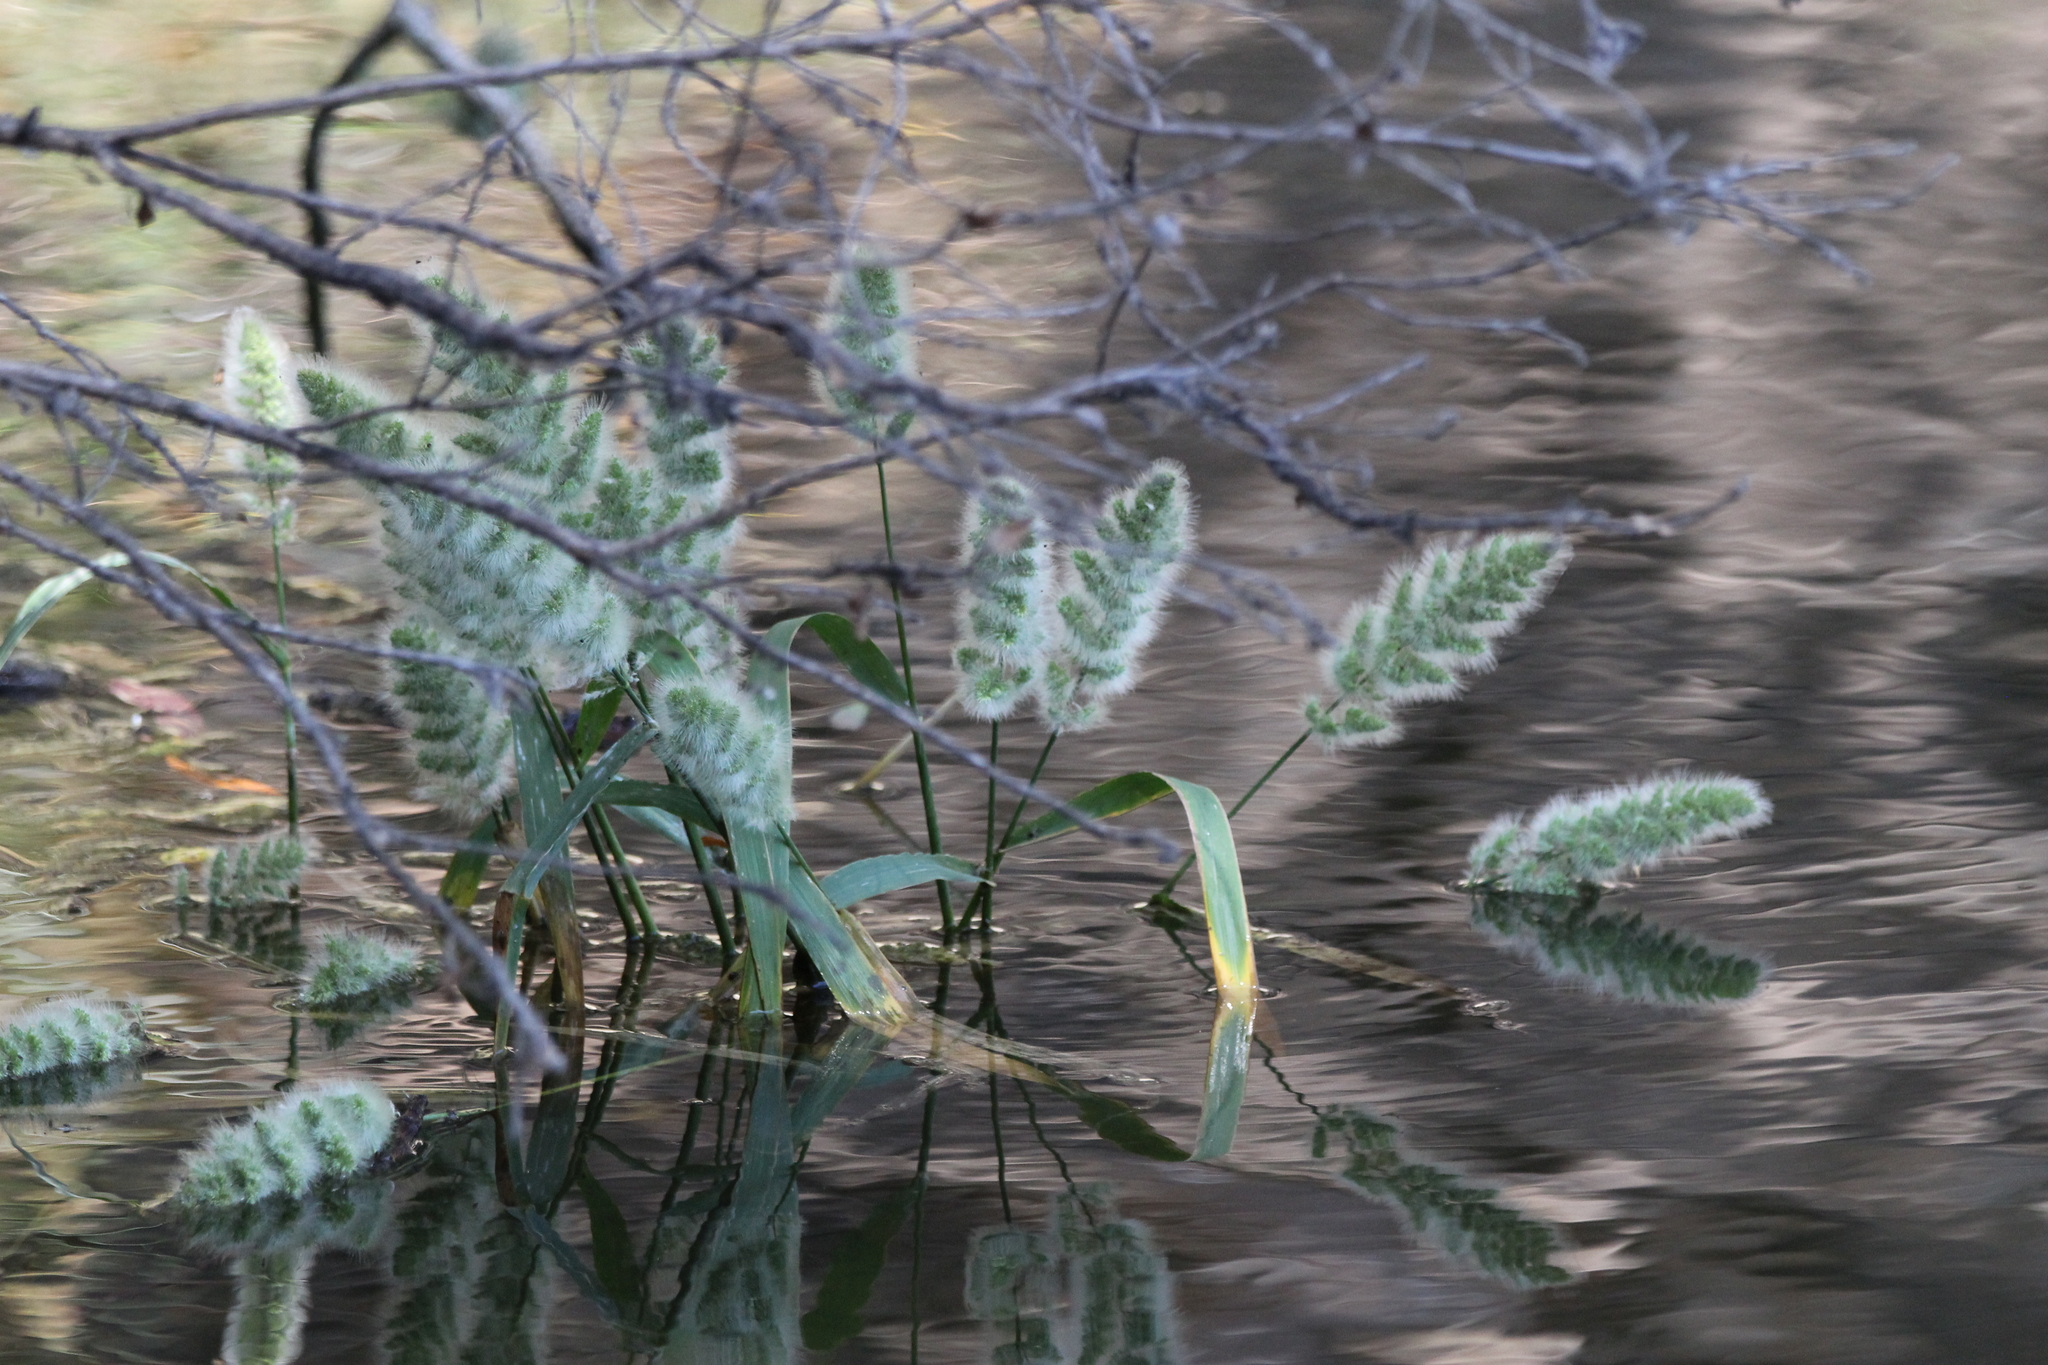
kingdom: Plantae
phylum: Tracheophyta
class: Liliopsida
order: Poales
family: Poaceae
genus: Polypogon
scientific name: Polypogon monspeliensis
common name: Annual rabbitsfoot grass
